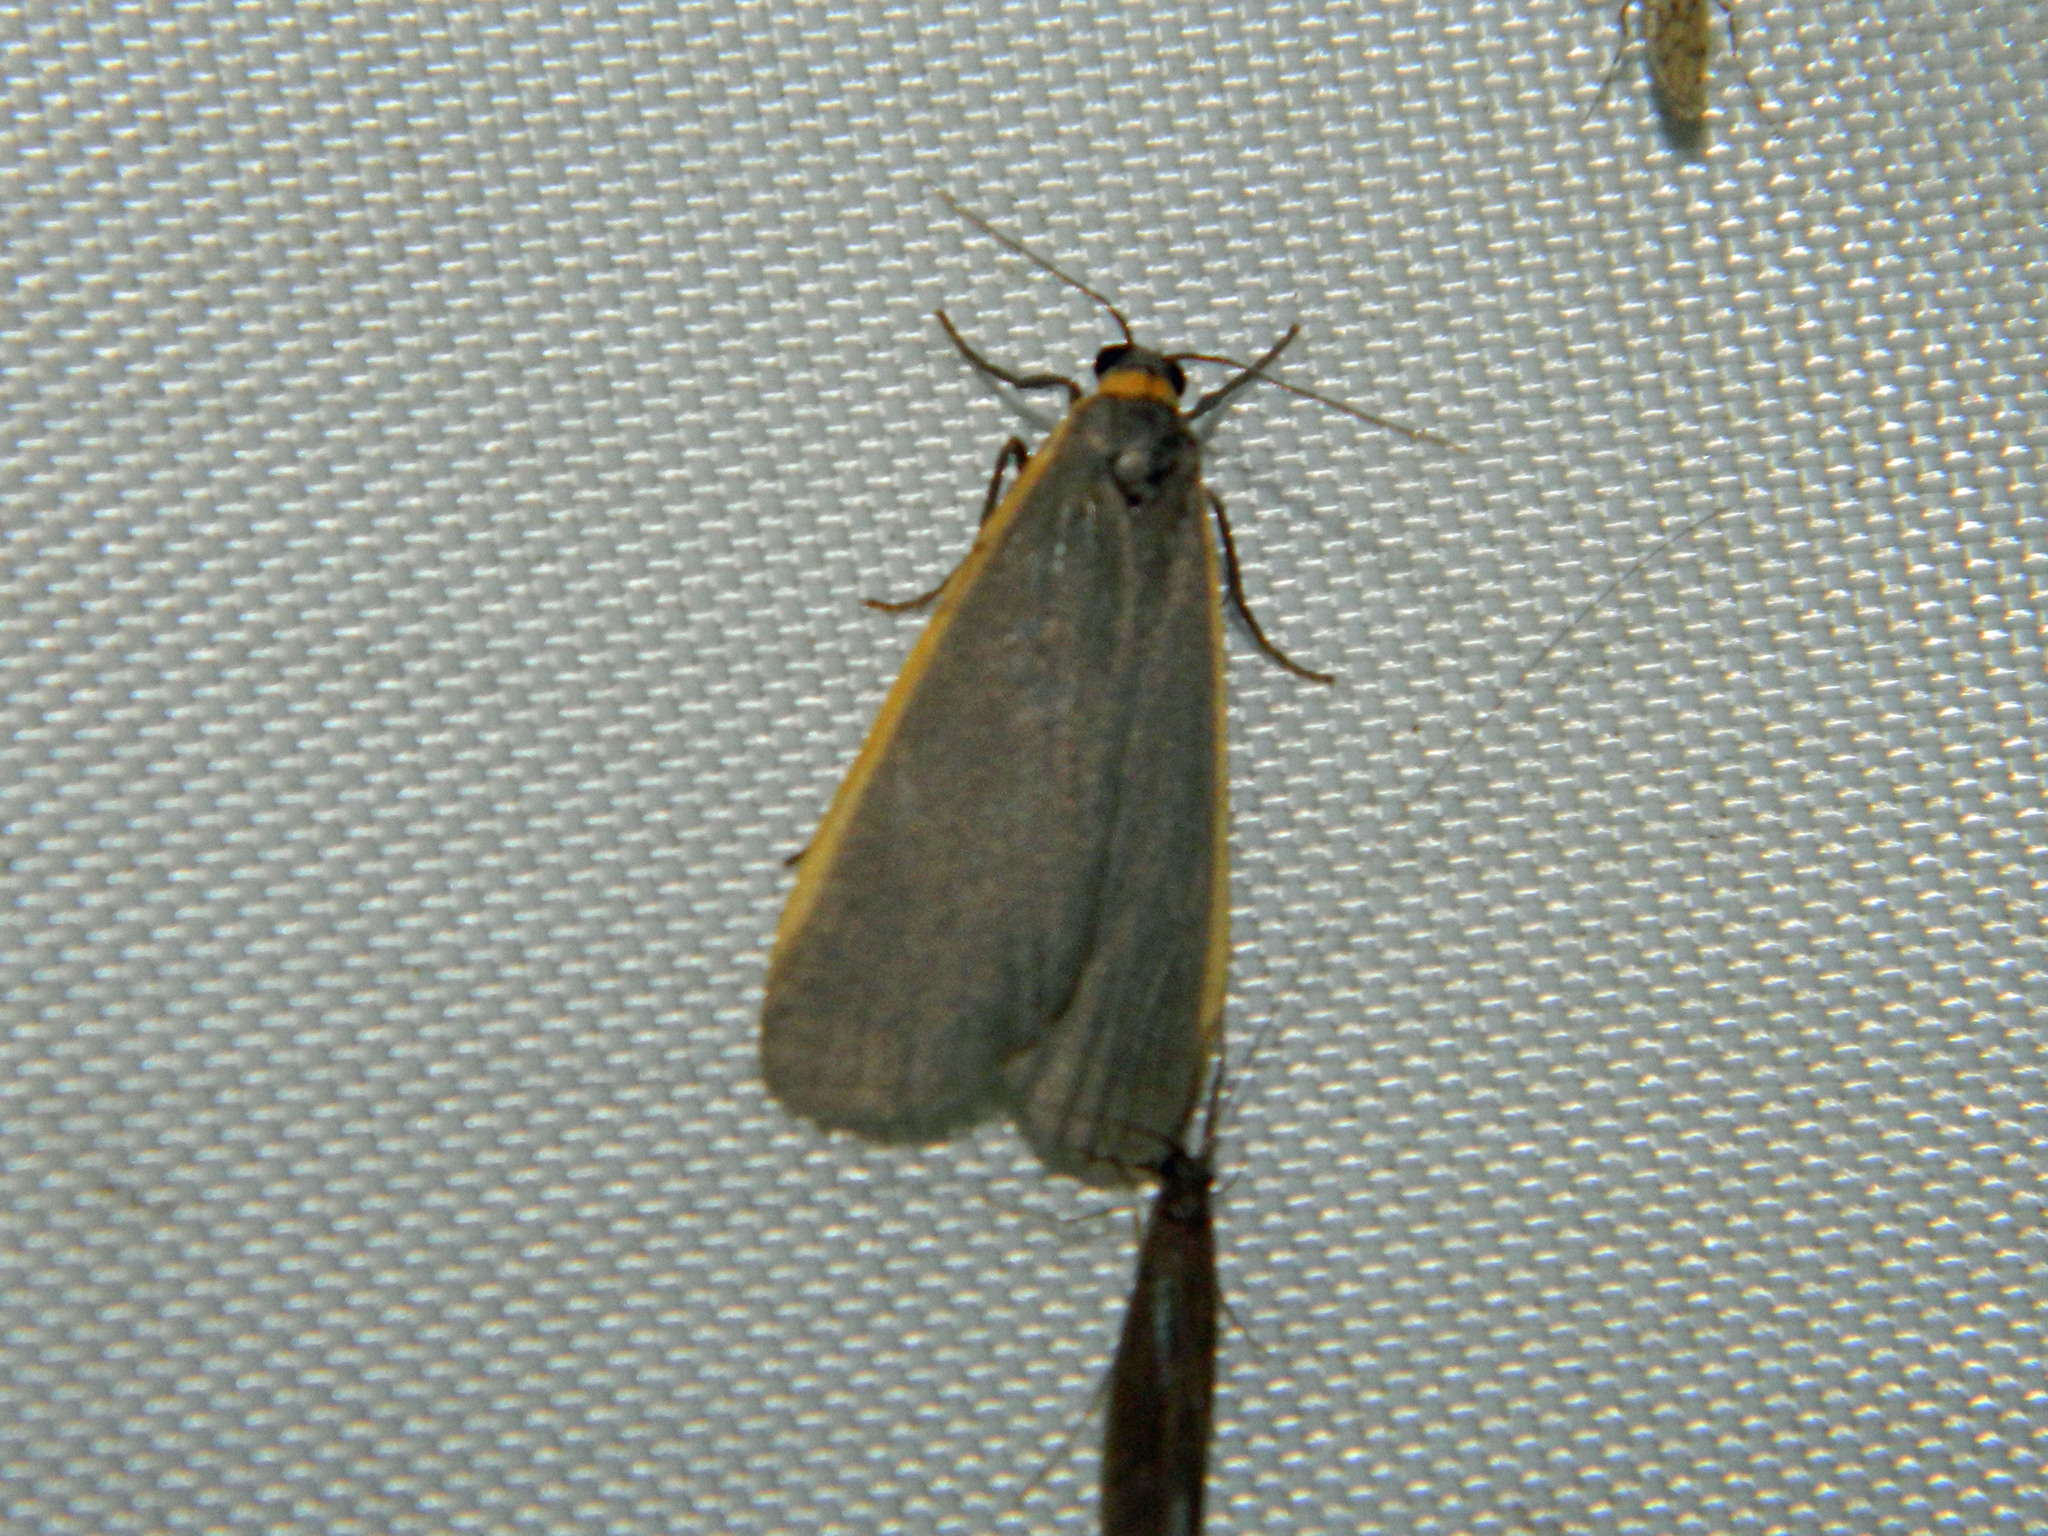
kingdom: Animalia
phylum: Arthropoda
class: Insecta
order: Lepidoptera
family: Erebidae
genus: Manulea
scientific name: Manulea bicolor
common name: Bicolored moth
